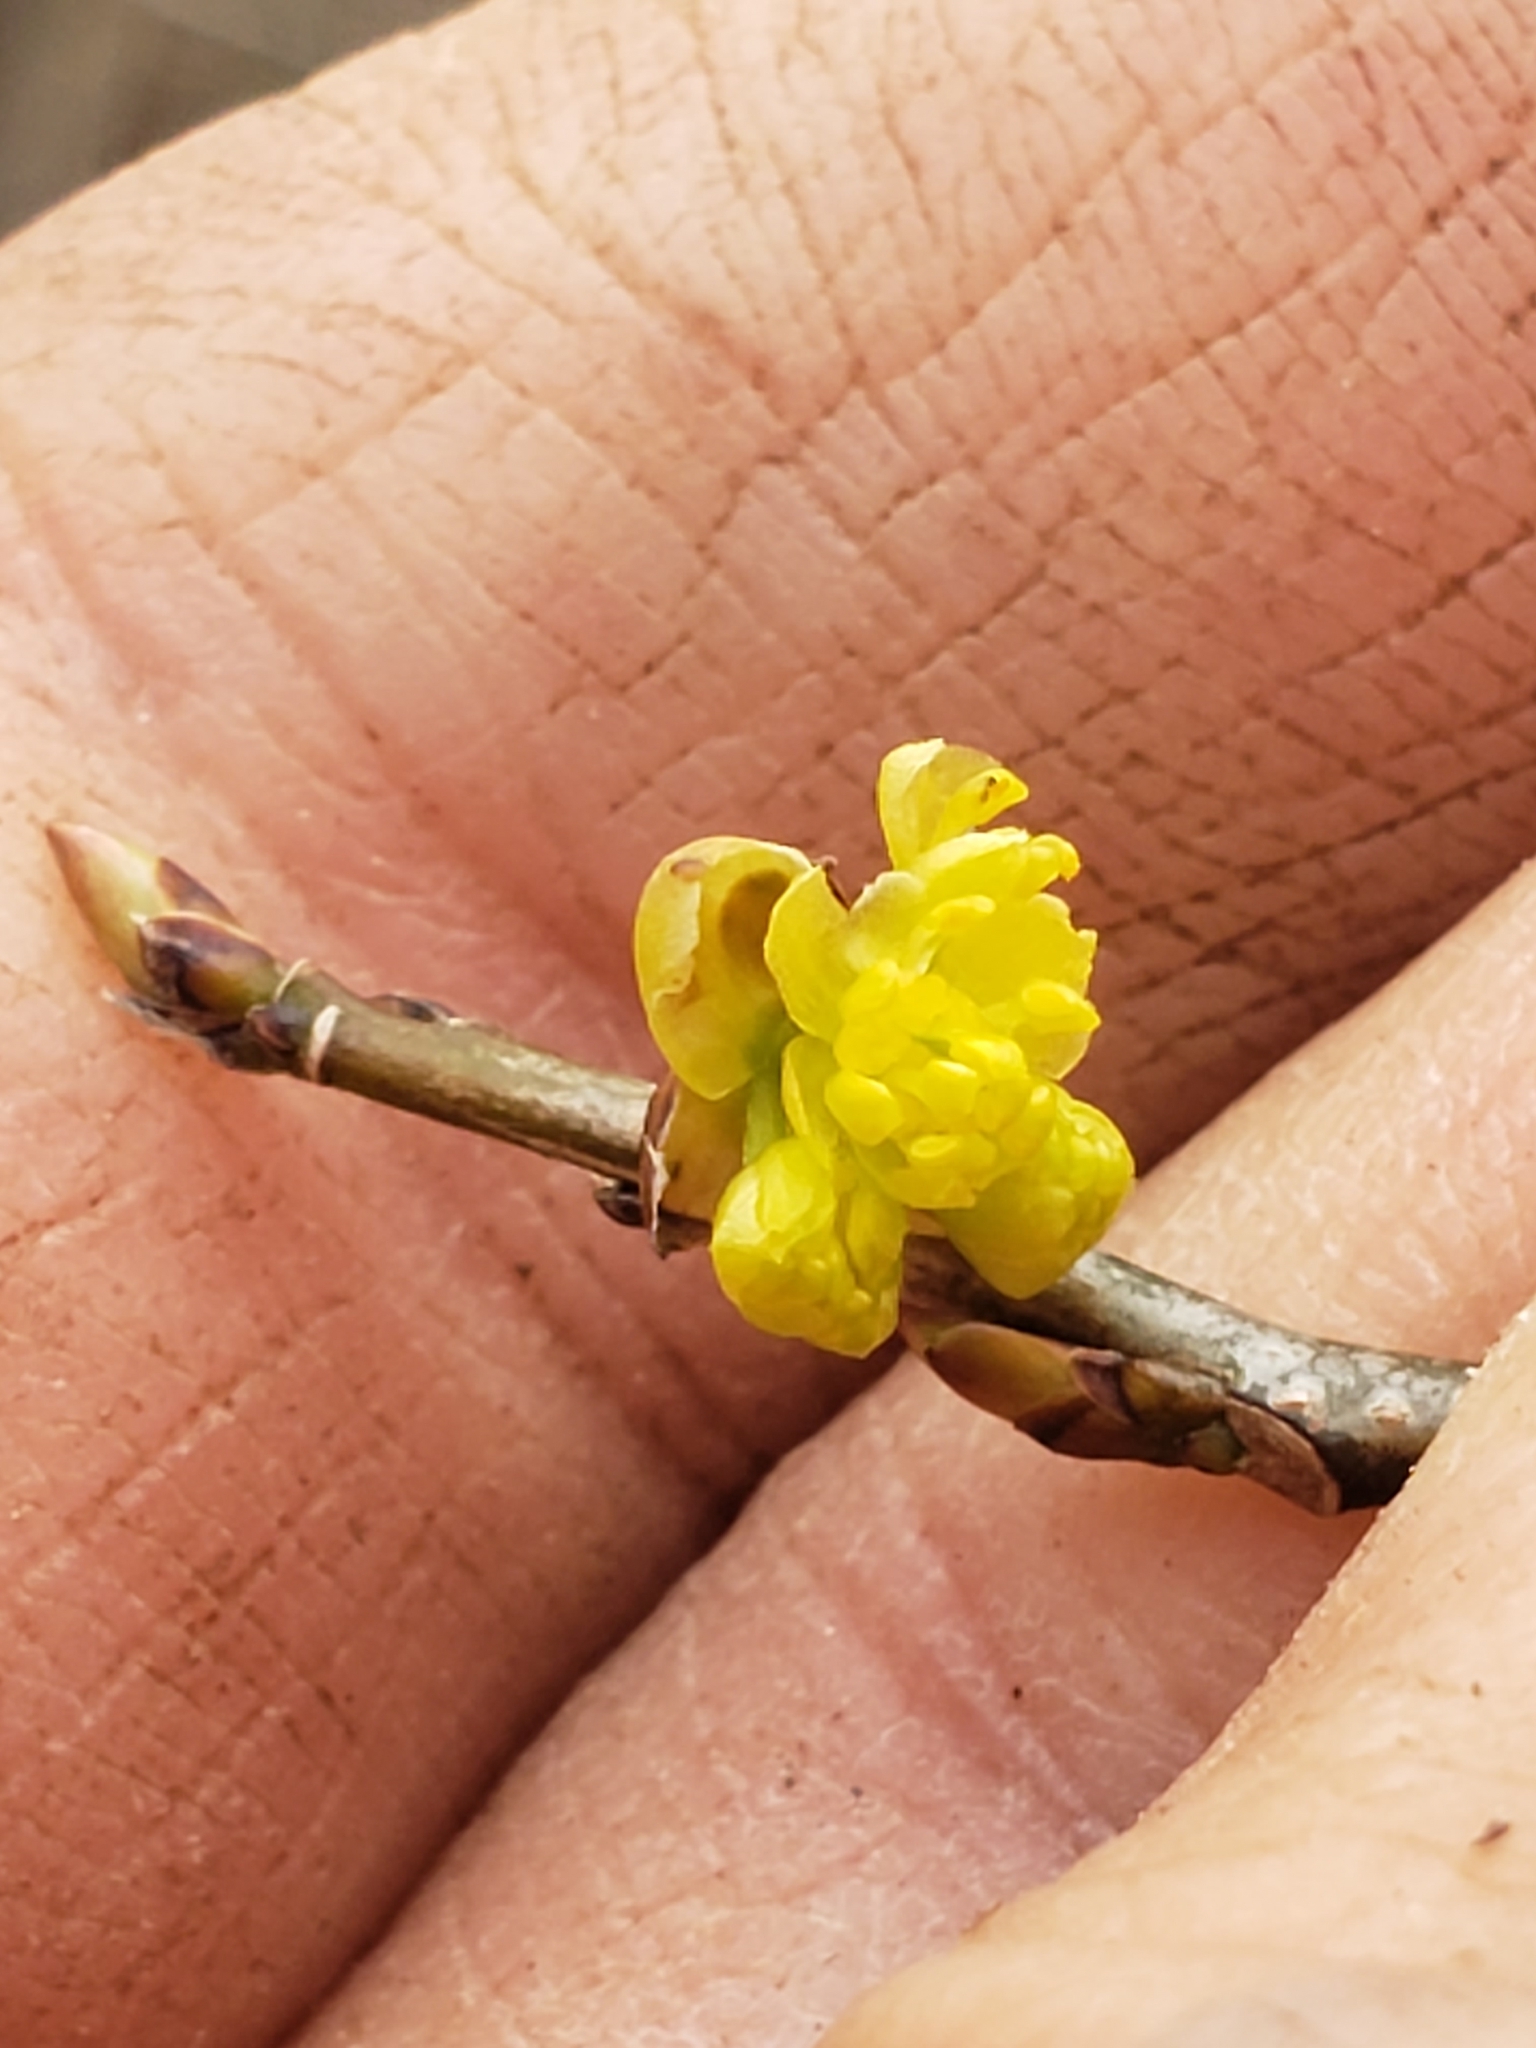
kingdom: Plantae
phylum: Tracheophyta
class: Magnoliopsida
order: Laurales
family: Lauraceae
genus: Lindera
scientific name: Lindera benzoin
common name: Spicebush
